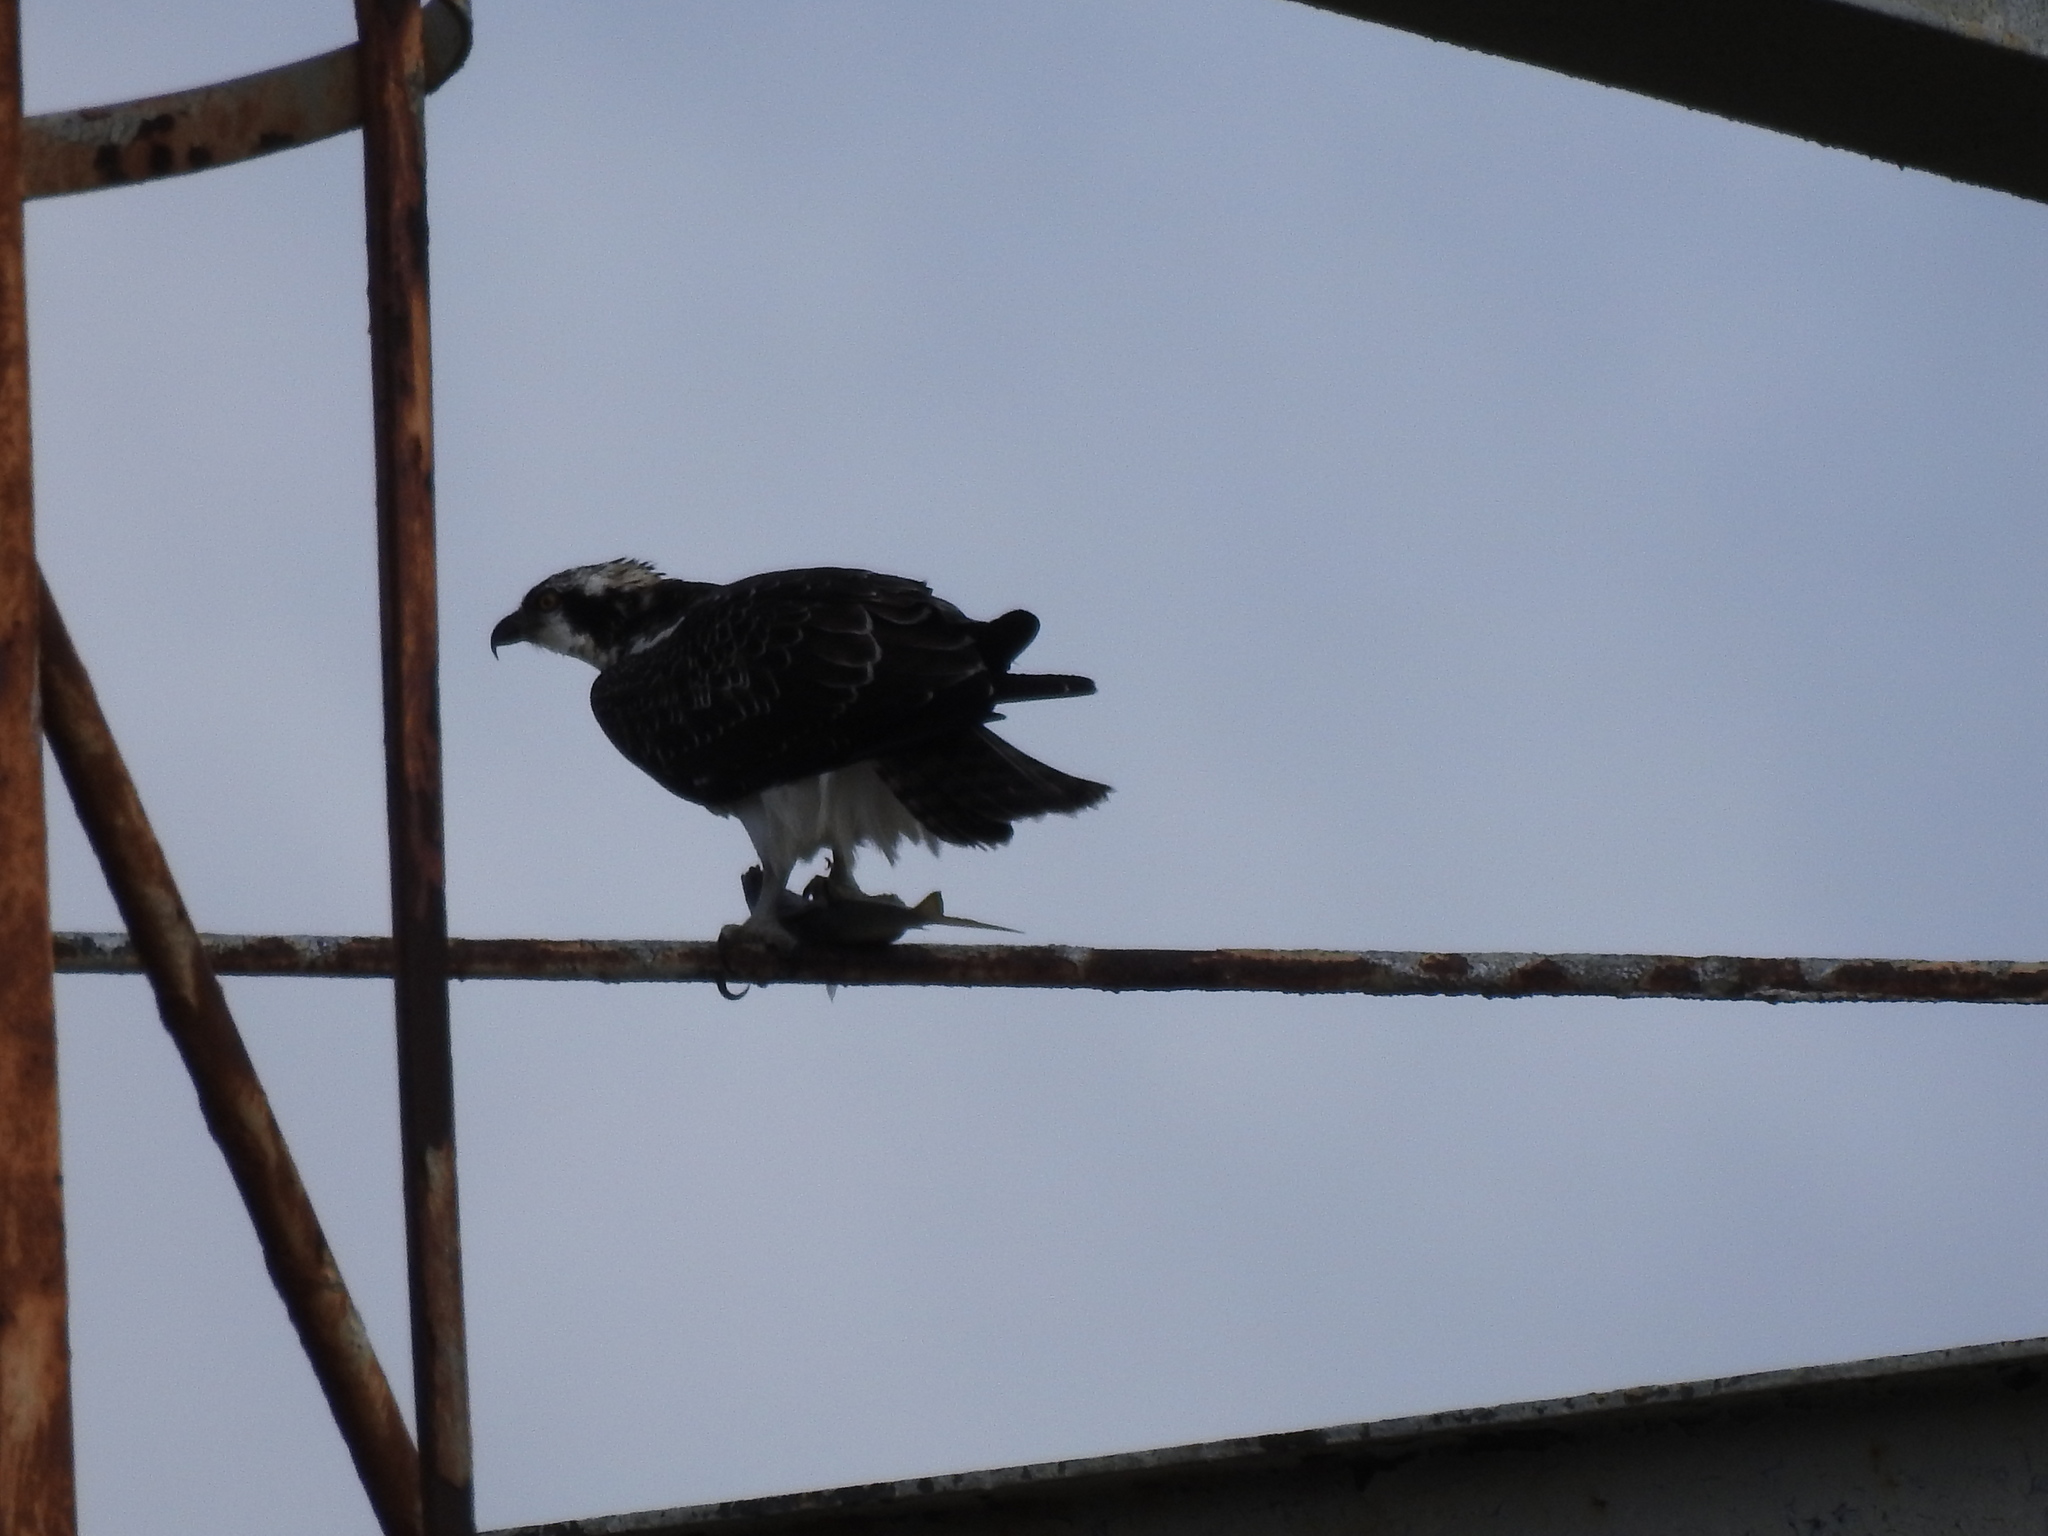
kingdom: Animalia
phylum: Chordata
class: Aves
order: Accipitriformes
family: Pandionidae
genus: Pandion
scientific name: Pandion haliaetus
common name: Osprey
